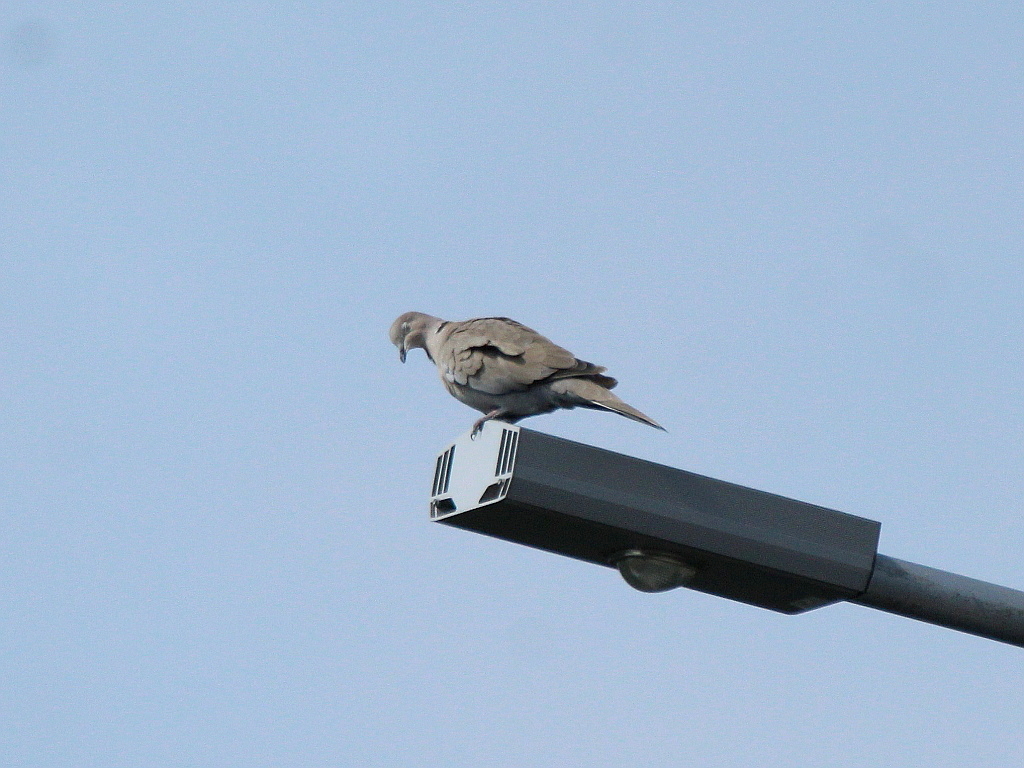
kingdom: Animalia
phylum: Chordata
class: Aves
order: Columbiformes
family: Columbidae
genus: Streptopelia
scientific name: Streptopelia decaocto
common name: Eurasian collared dove
